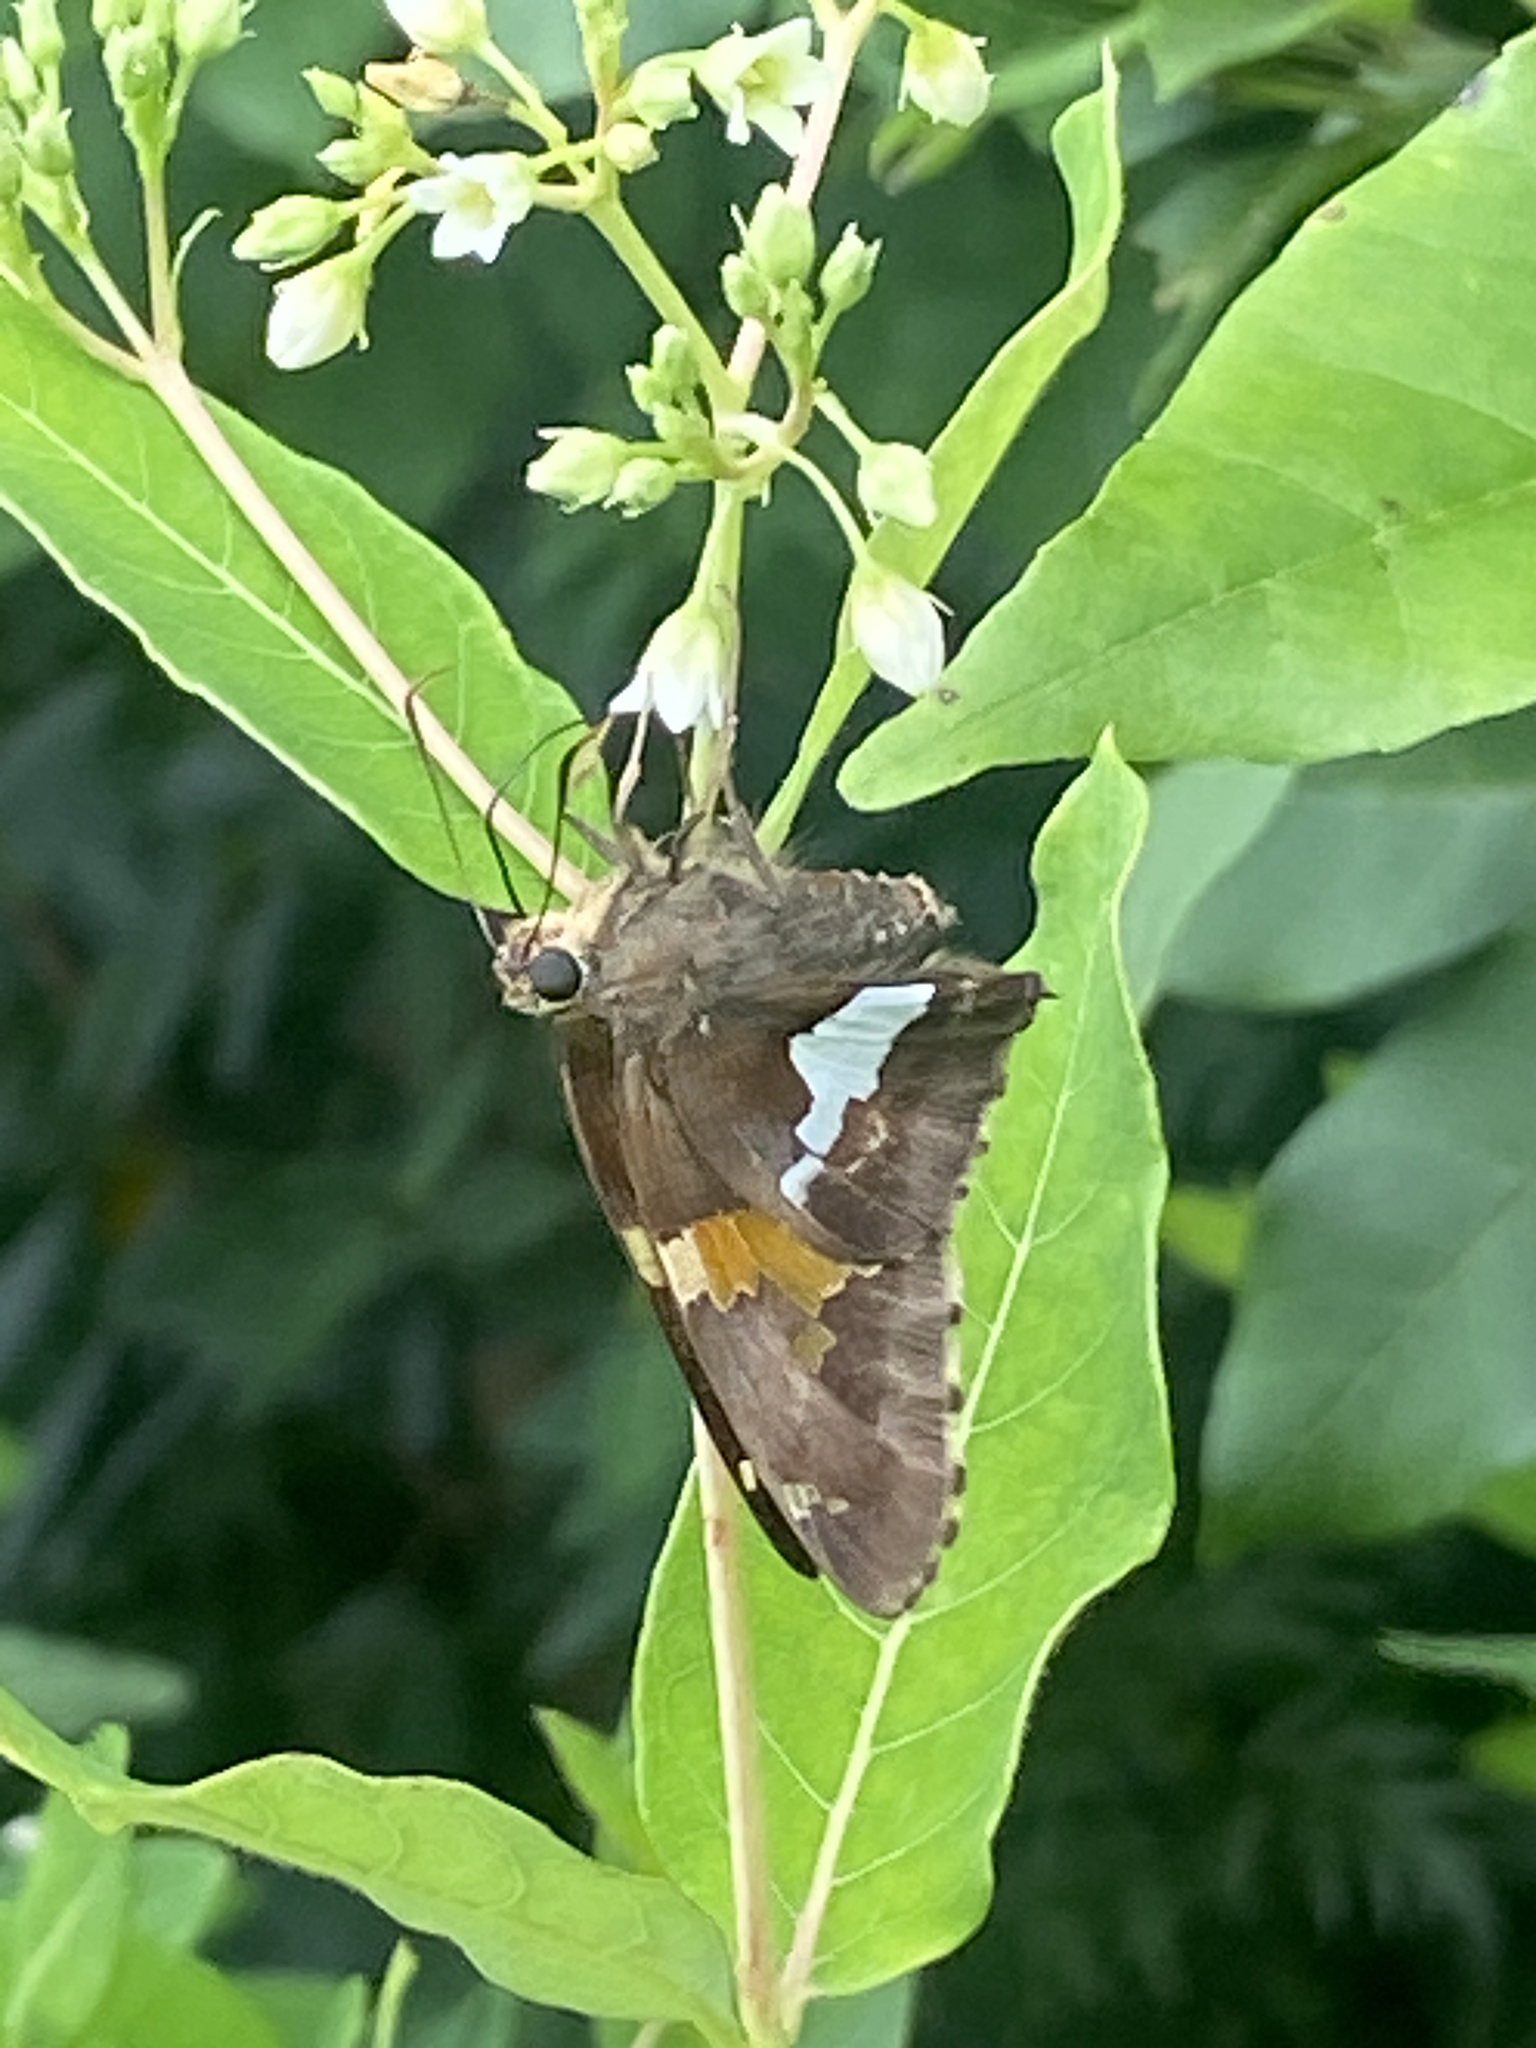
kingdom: Animalia
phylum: Arthropoda
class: Insecta
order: Lepidoptera
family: Hesperiidae
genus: Epargyreus
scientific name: Epargyreus clarus
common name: Silver-spotted skipper
